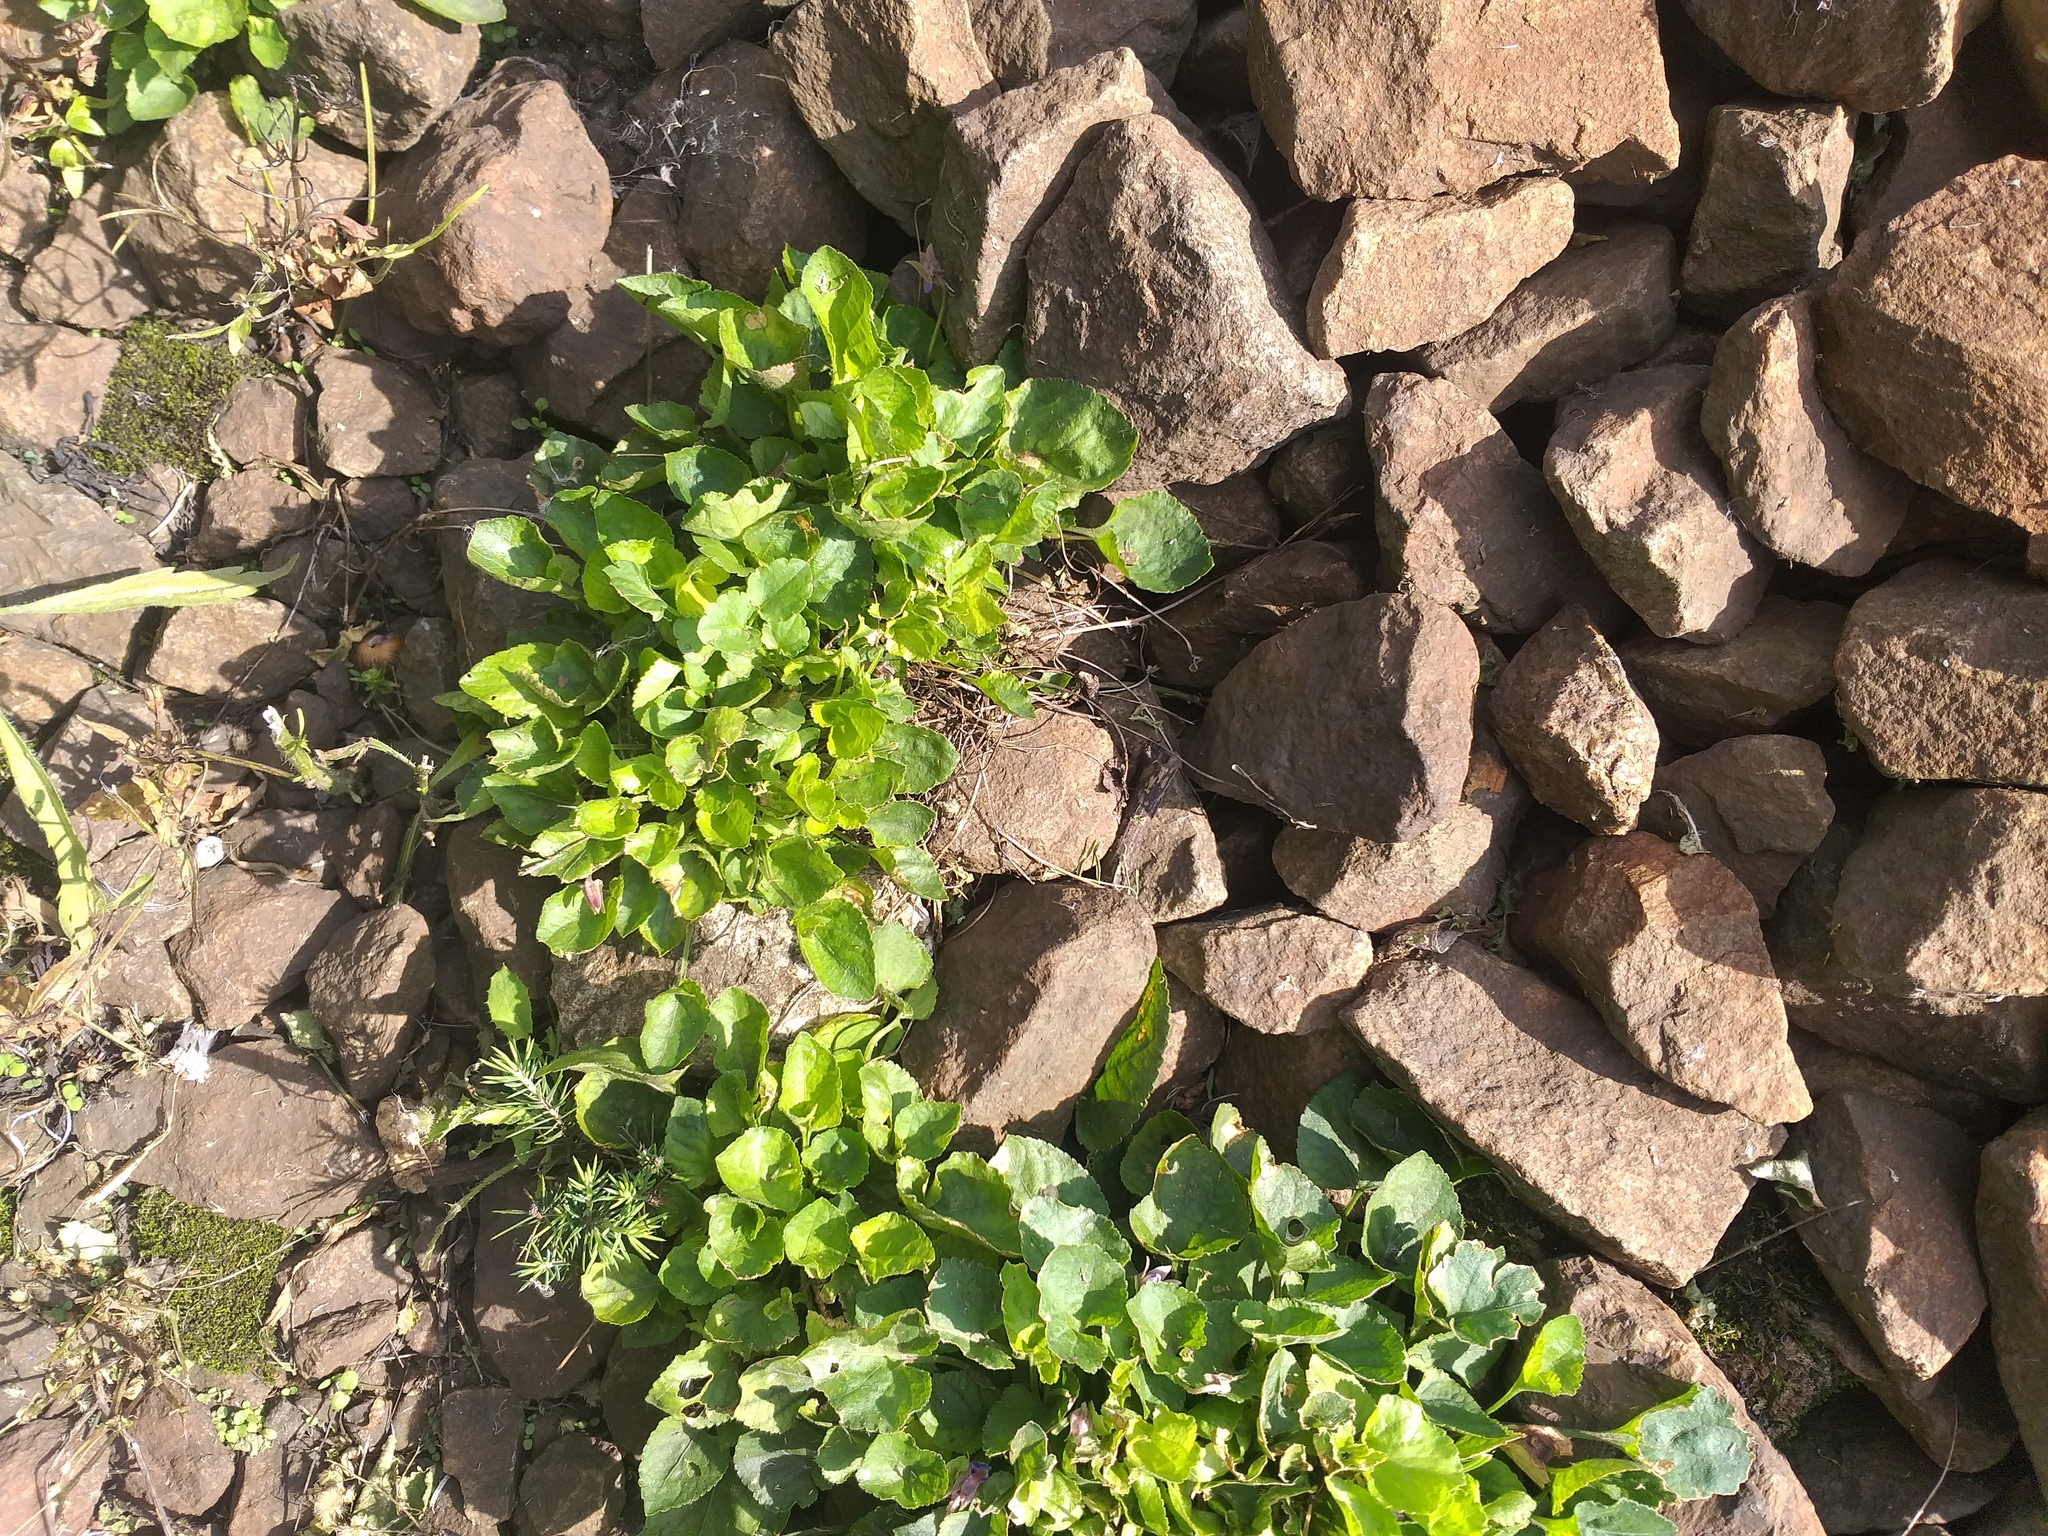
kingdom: Plantae
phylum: Tracheophyta
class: Magnoliopsida
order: Malpighiales
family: Violaceae
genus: Viola
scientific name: Viola odorata
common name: Sweet violet
